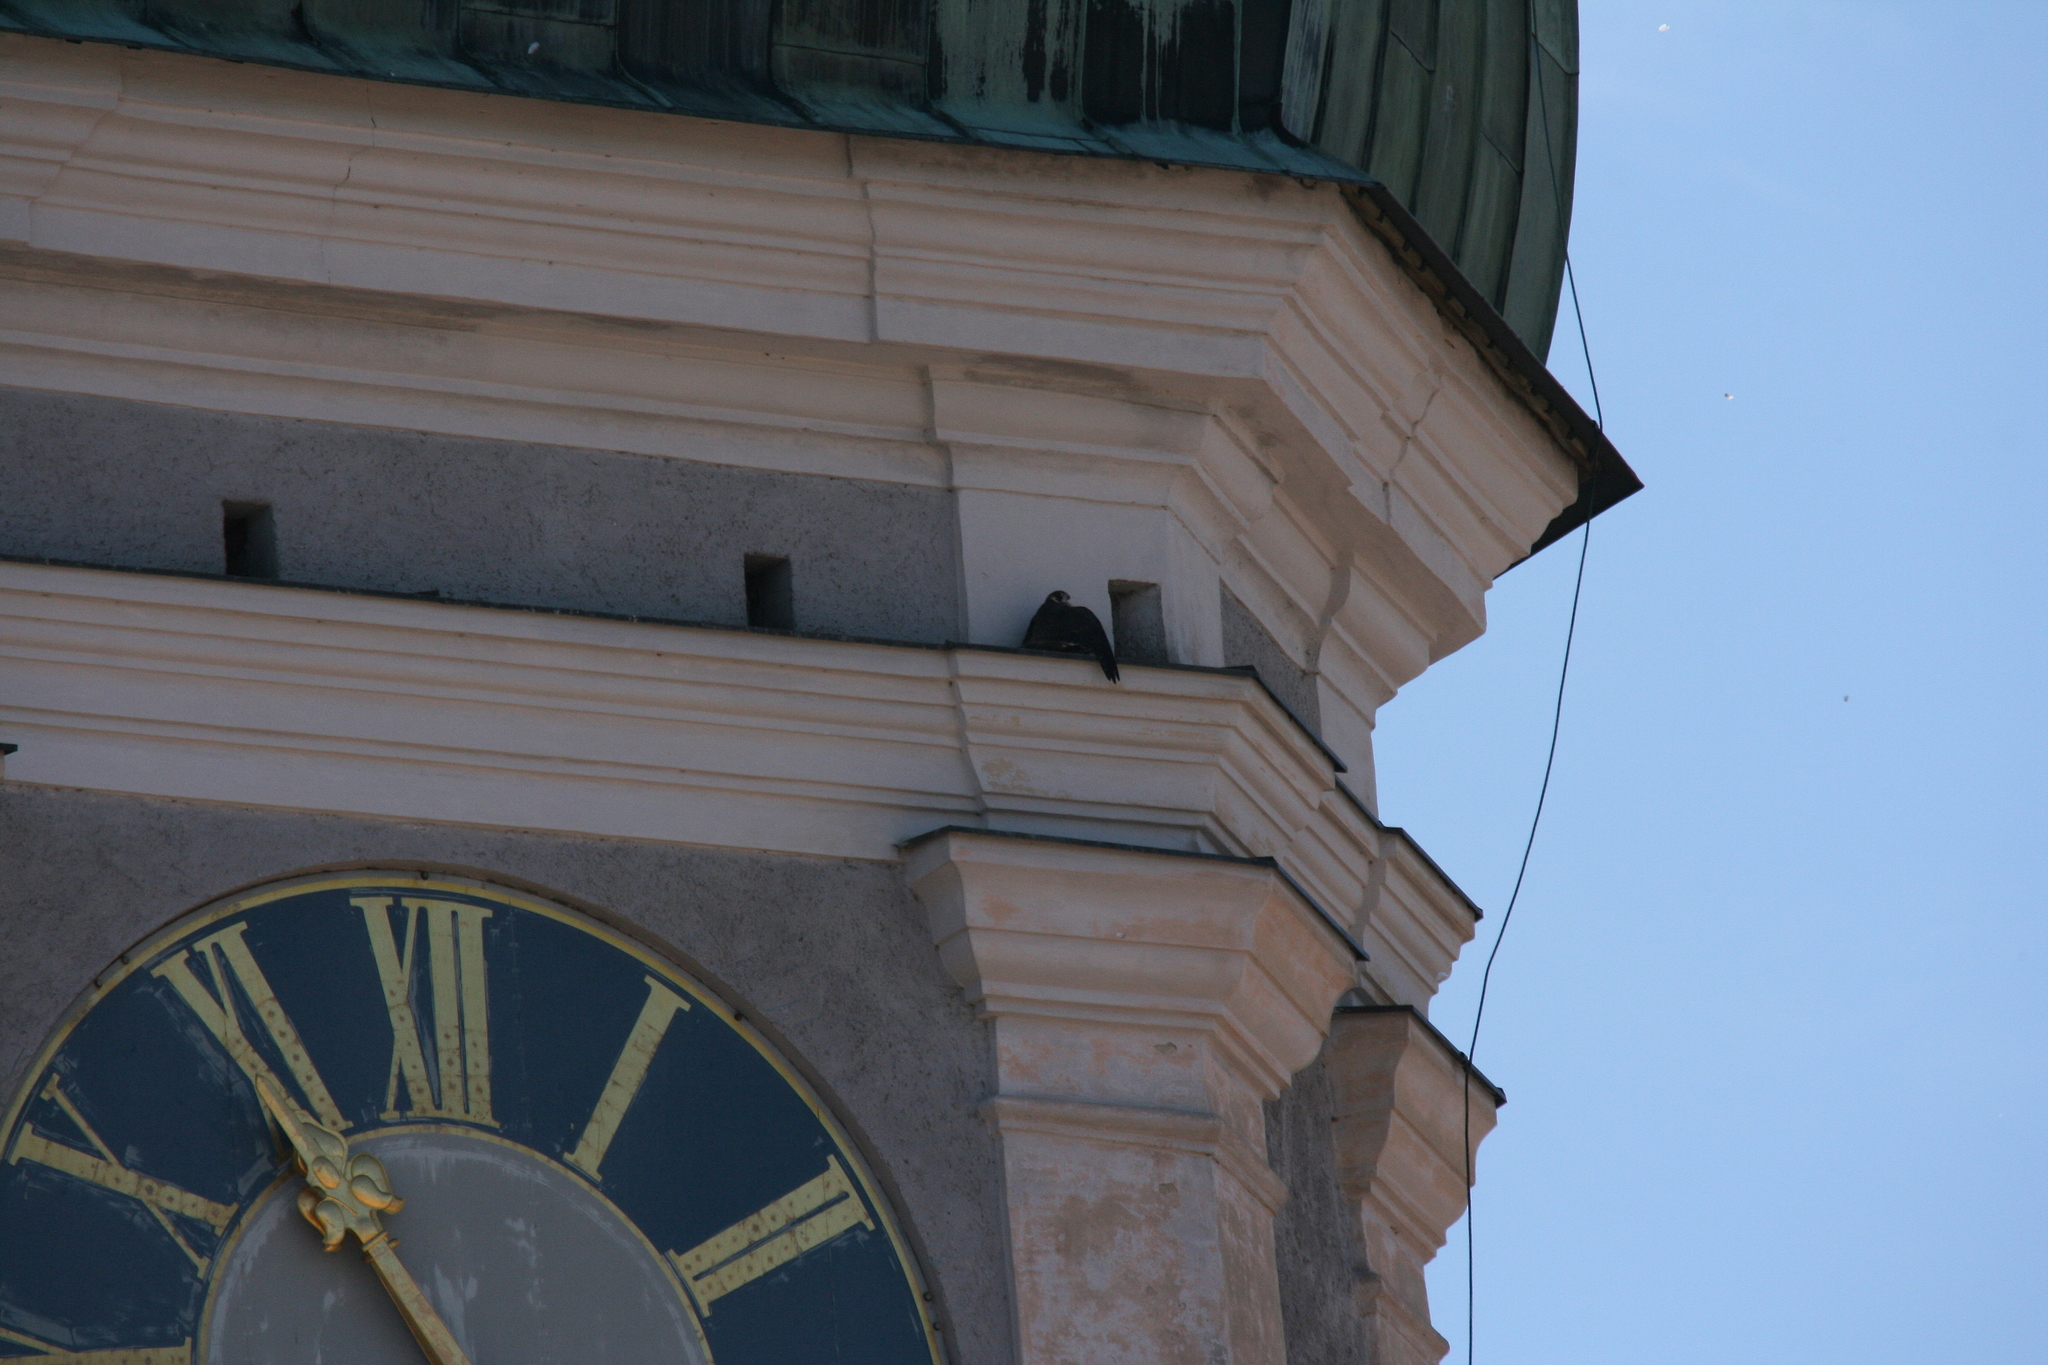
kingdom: Animalia
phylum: Chordata
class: Aves
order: Falconiformes
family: Falconidae
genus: Falco
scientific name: Falco peregrinus
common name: Peregrine falcon
